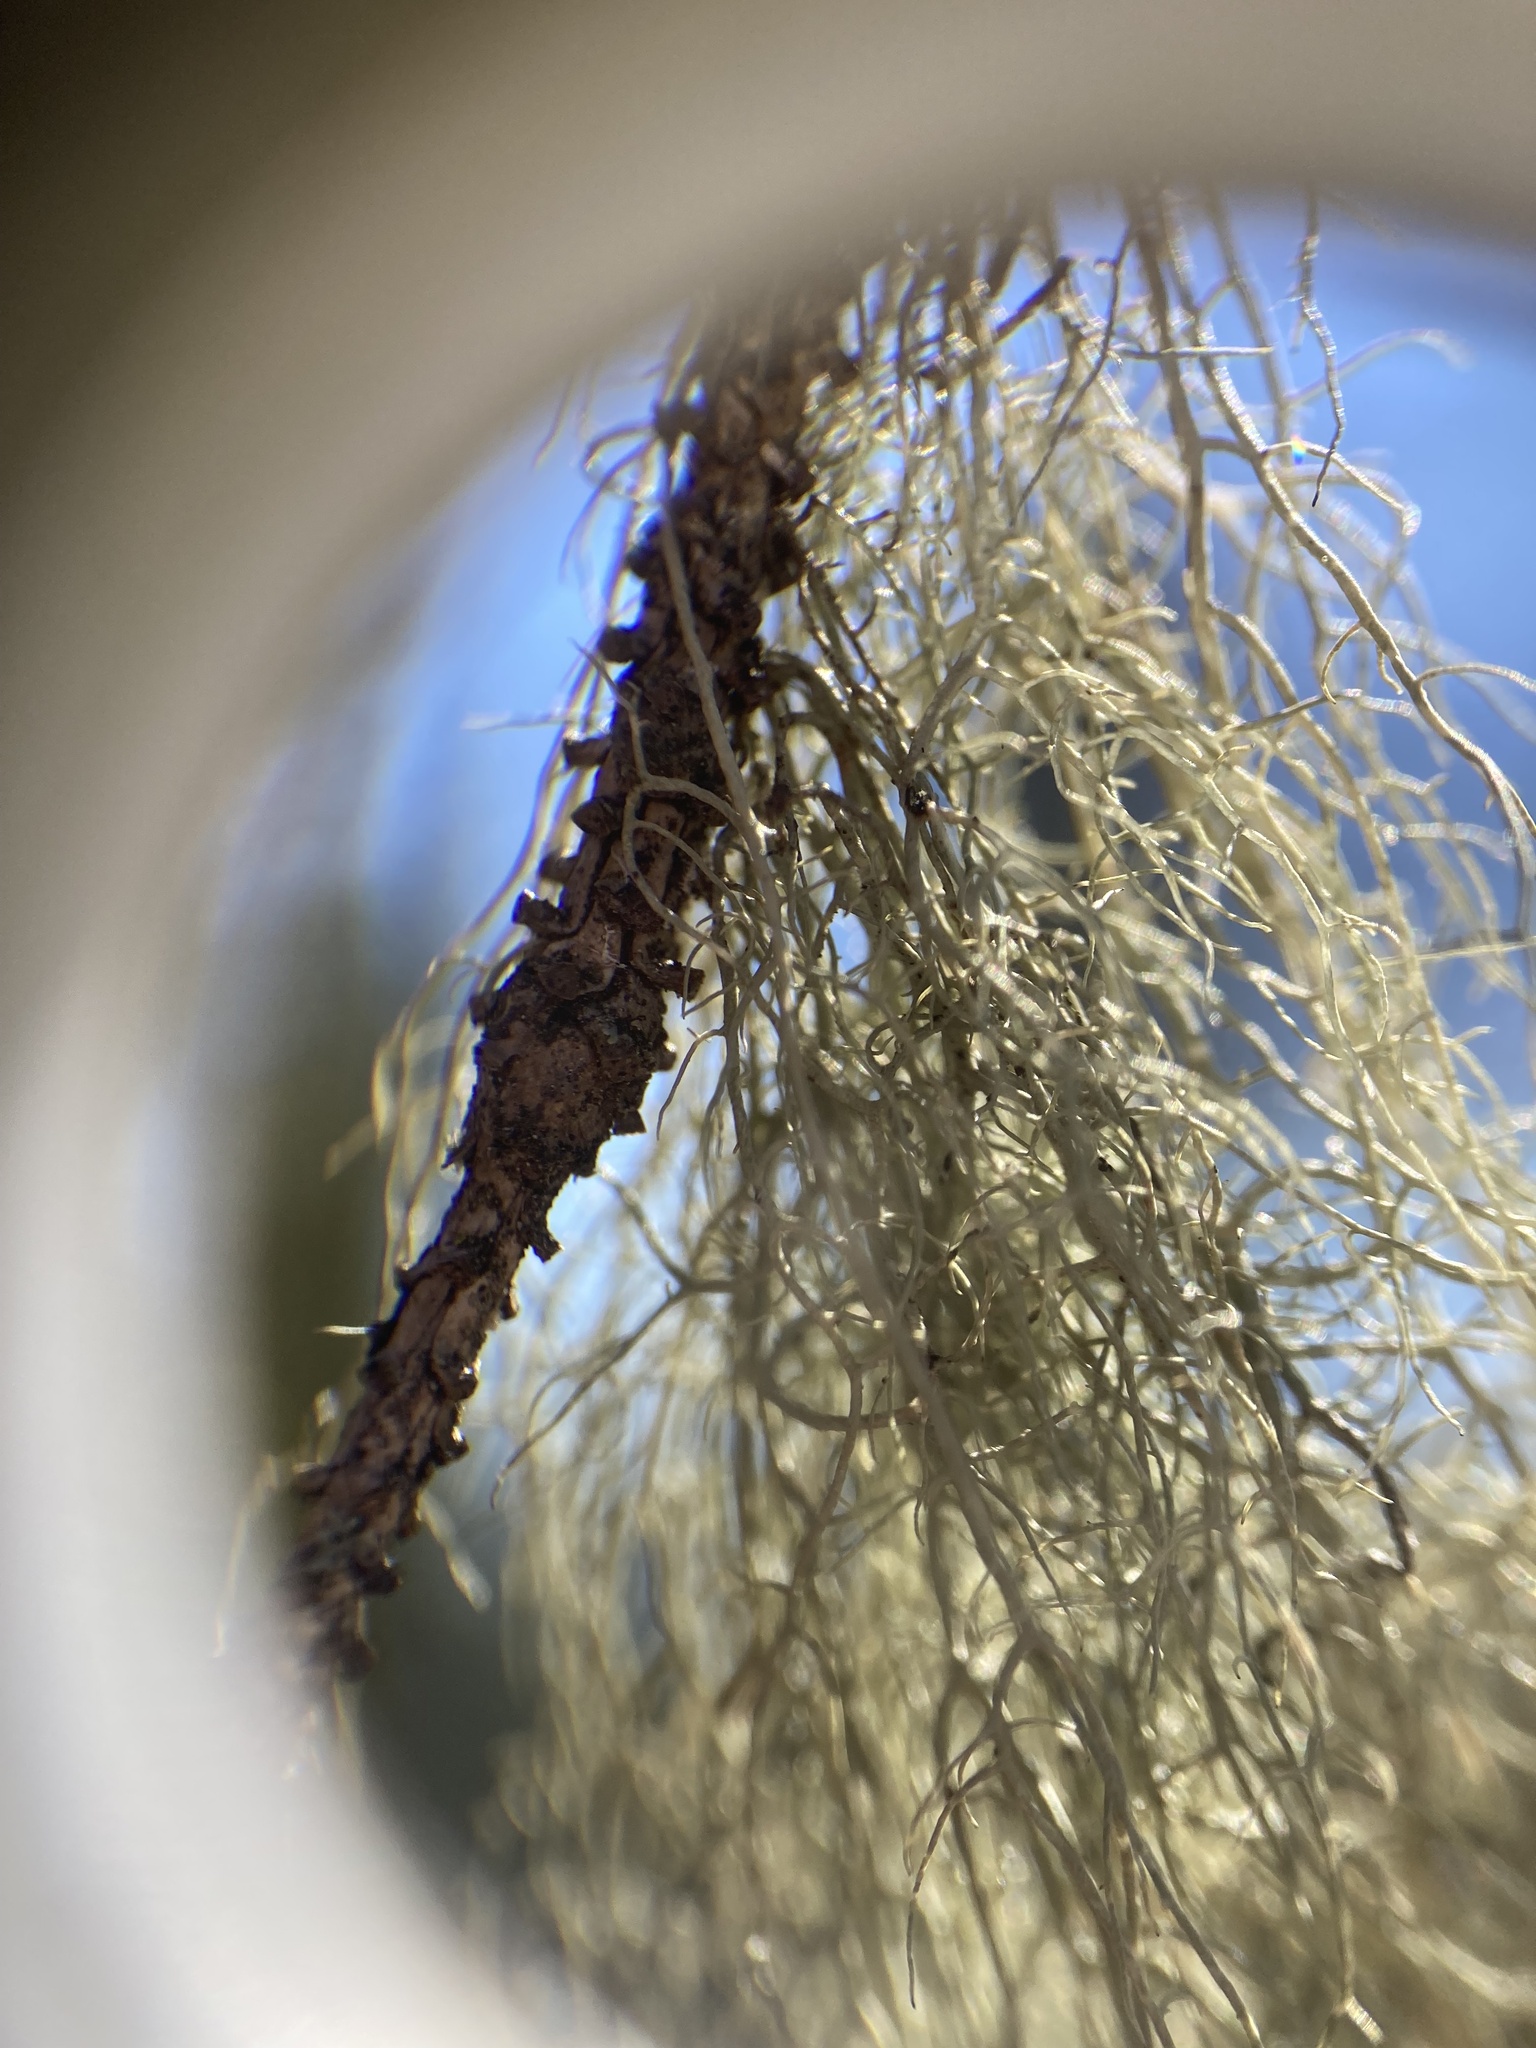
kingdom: Fungi
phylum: Ascomycota
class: Lecanoromycetes
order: Lecanorales
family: Parmeliaceae
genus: Usnea
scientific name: Usnea cavernosa
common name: Pitted beard lichen
